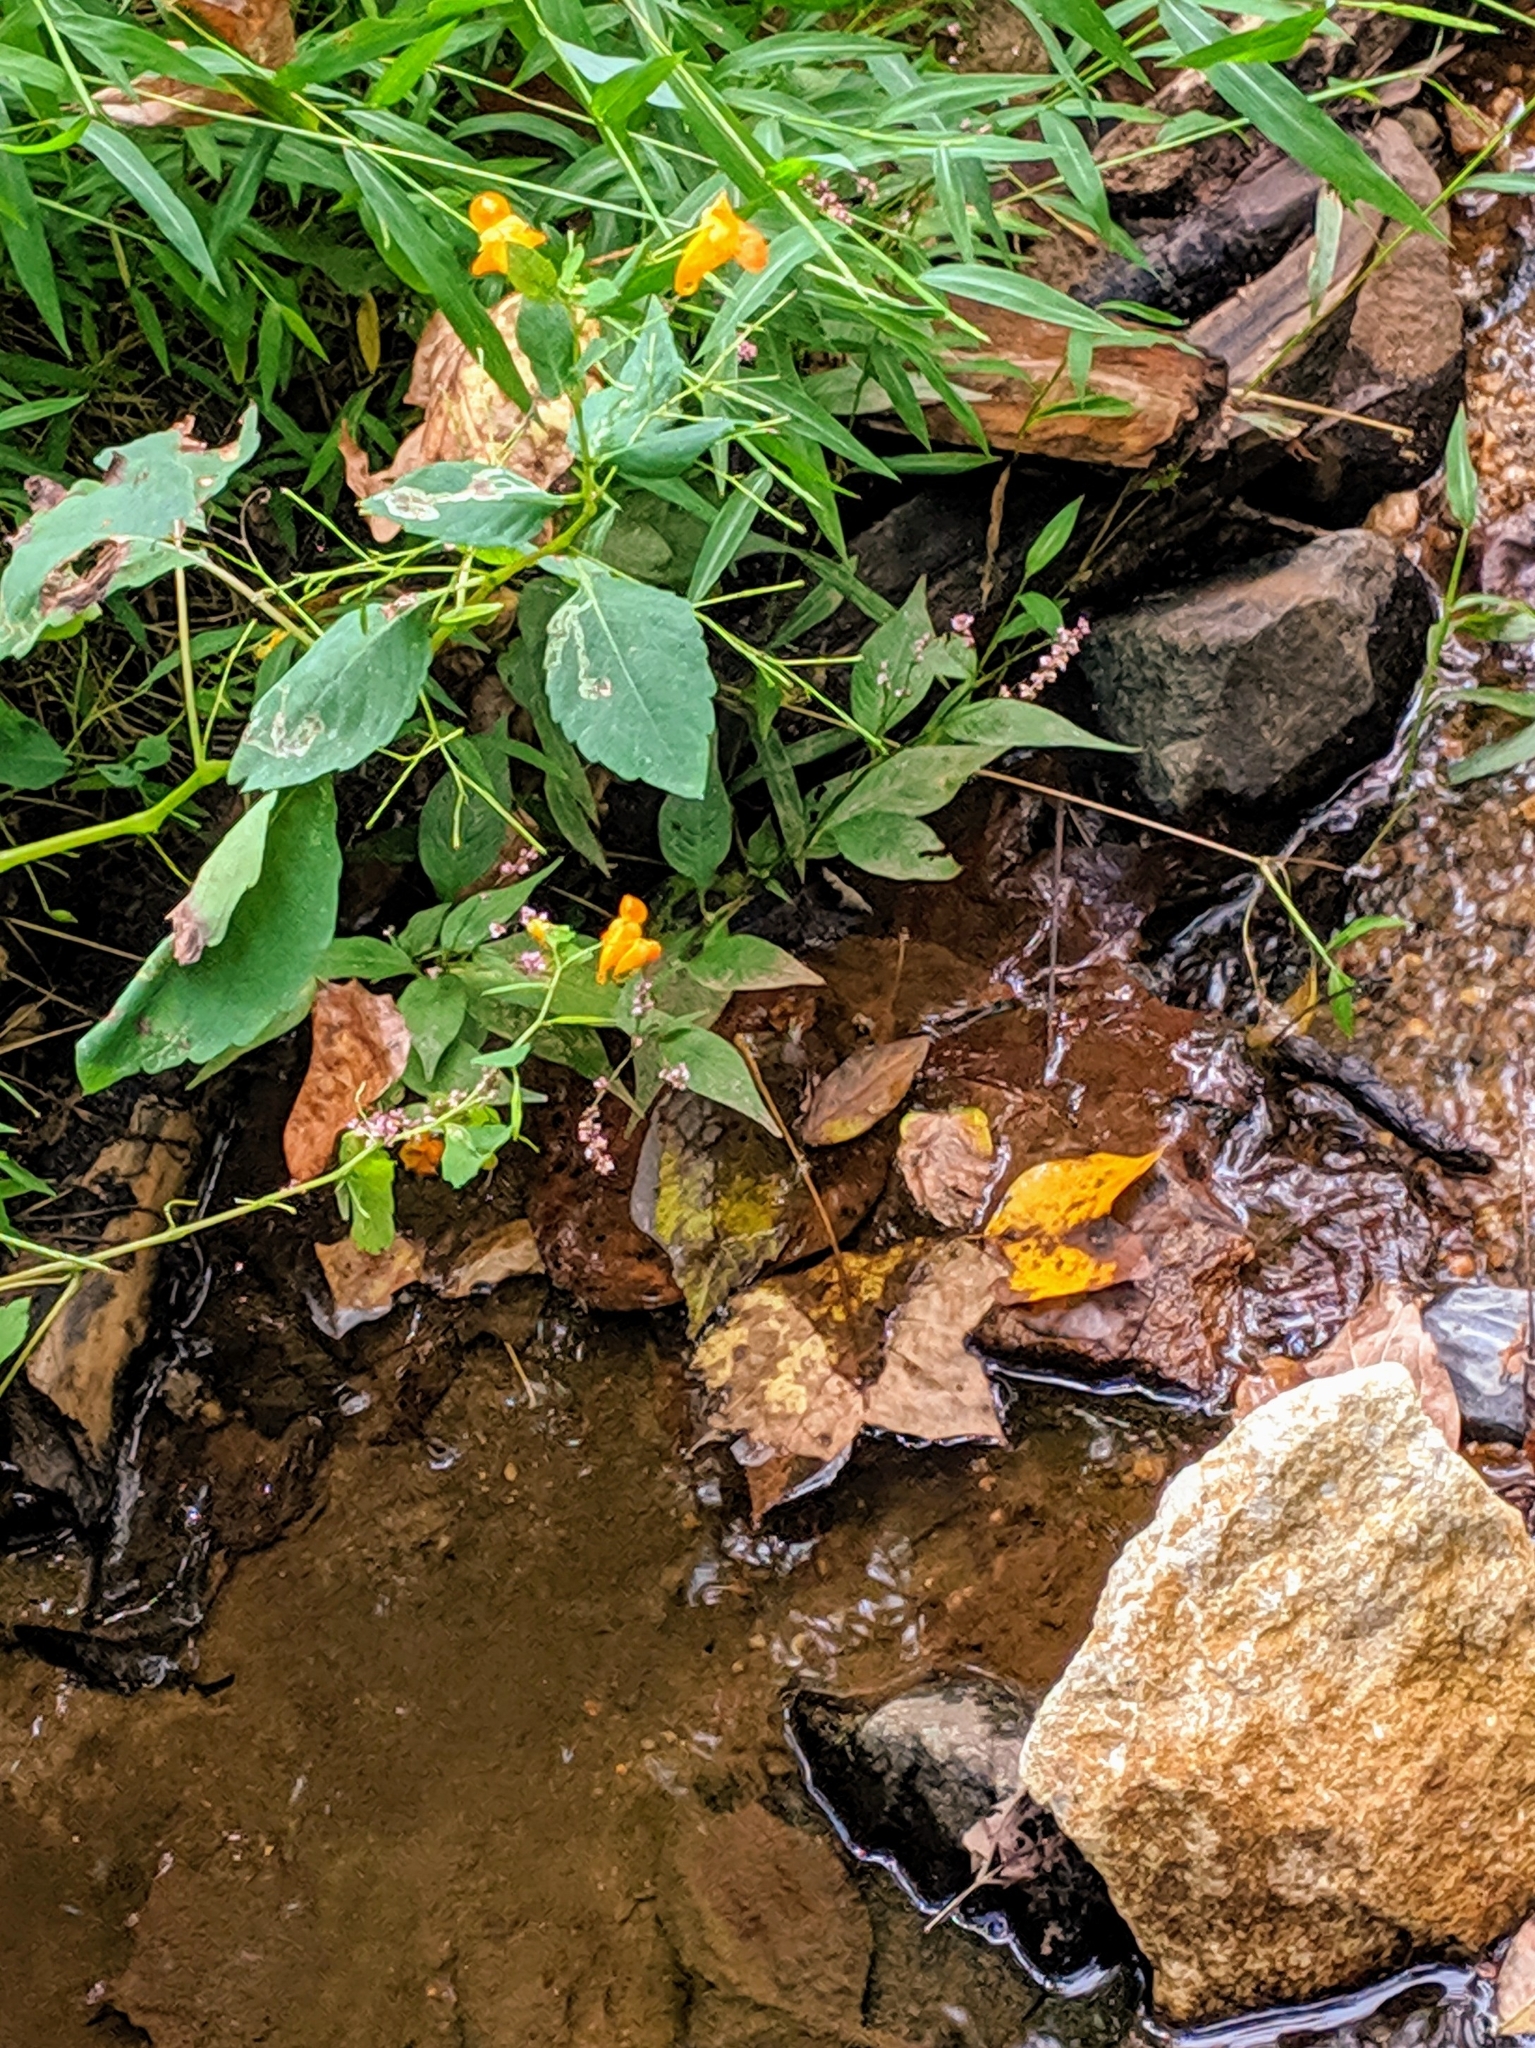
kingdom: Plantae
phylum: Tracheophyta
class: Magnoliopsida
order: Ericales
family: Balsaminaceae
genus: Impatiens
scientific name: Impatiens capensis
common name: Orange balsam
